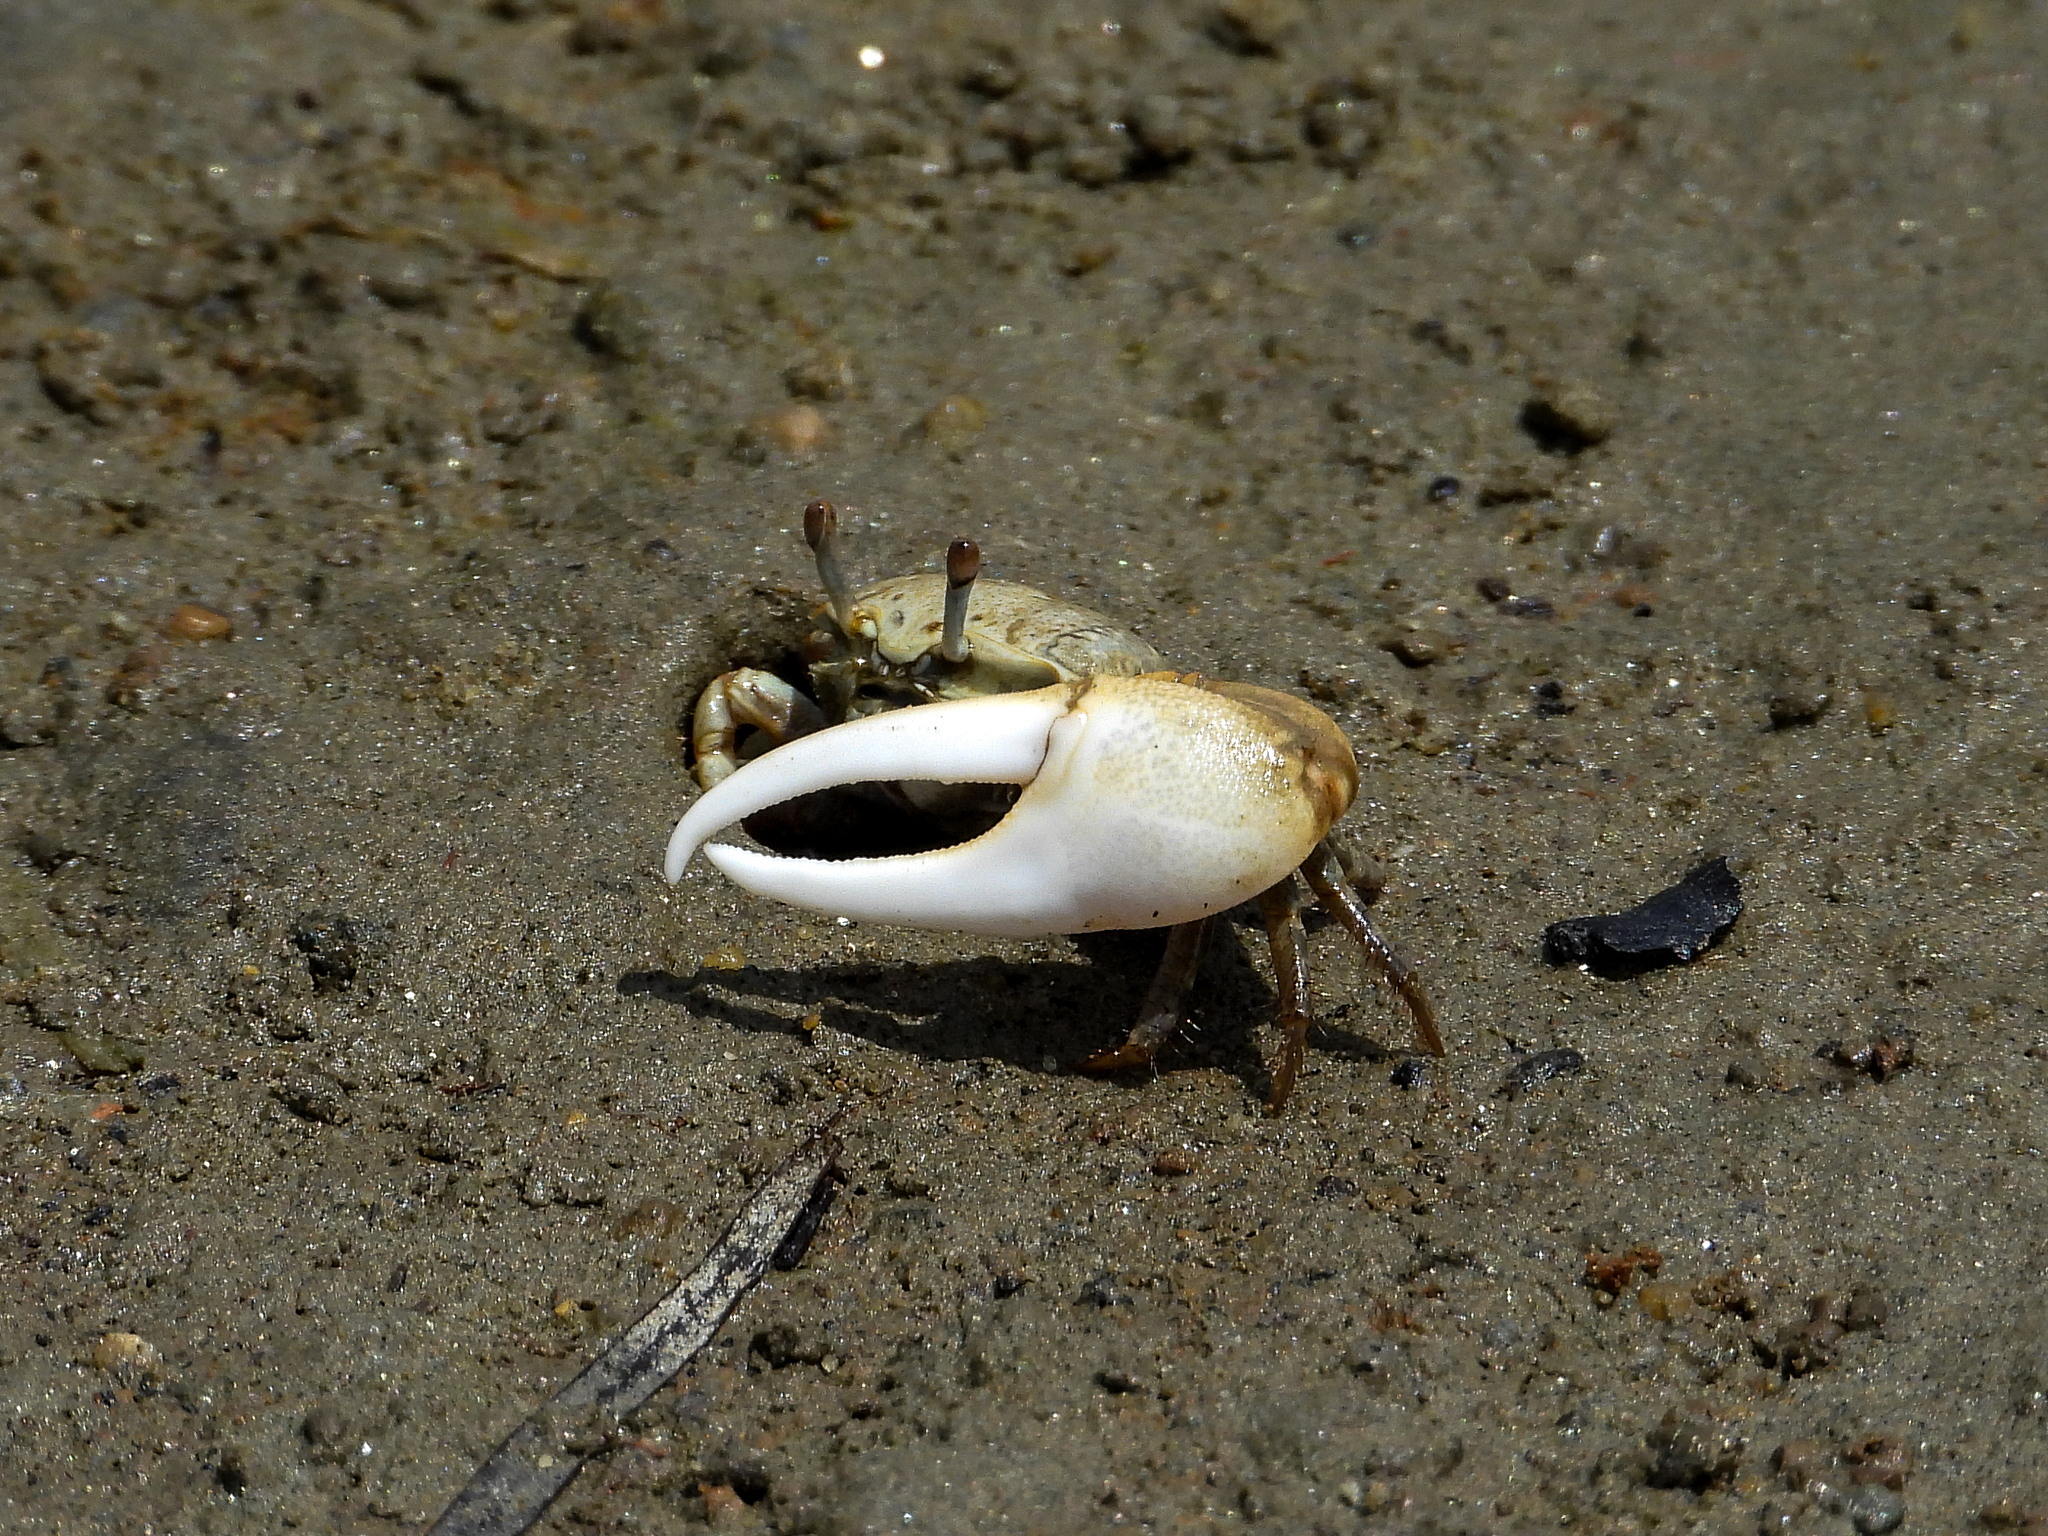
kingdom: Animalia
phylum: Arthropoda
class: Malacostraca
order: Decapoda
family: Ocypodidae
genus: Leptuca
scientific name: Leptuca crenulata
